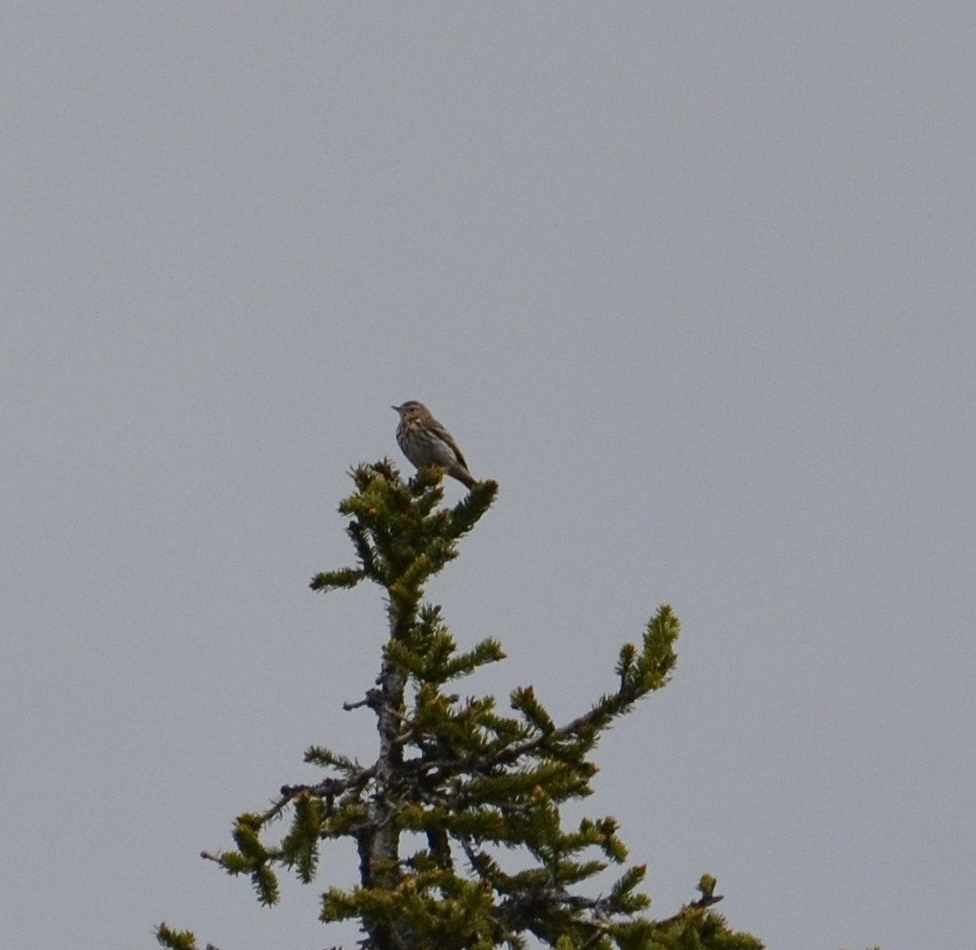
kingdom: Animalia
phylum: Chordata
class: Aves
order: Passeriformes
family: Motacillidae
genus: Anthus
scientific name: Anthus trivialis
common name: Tree pipit
